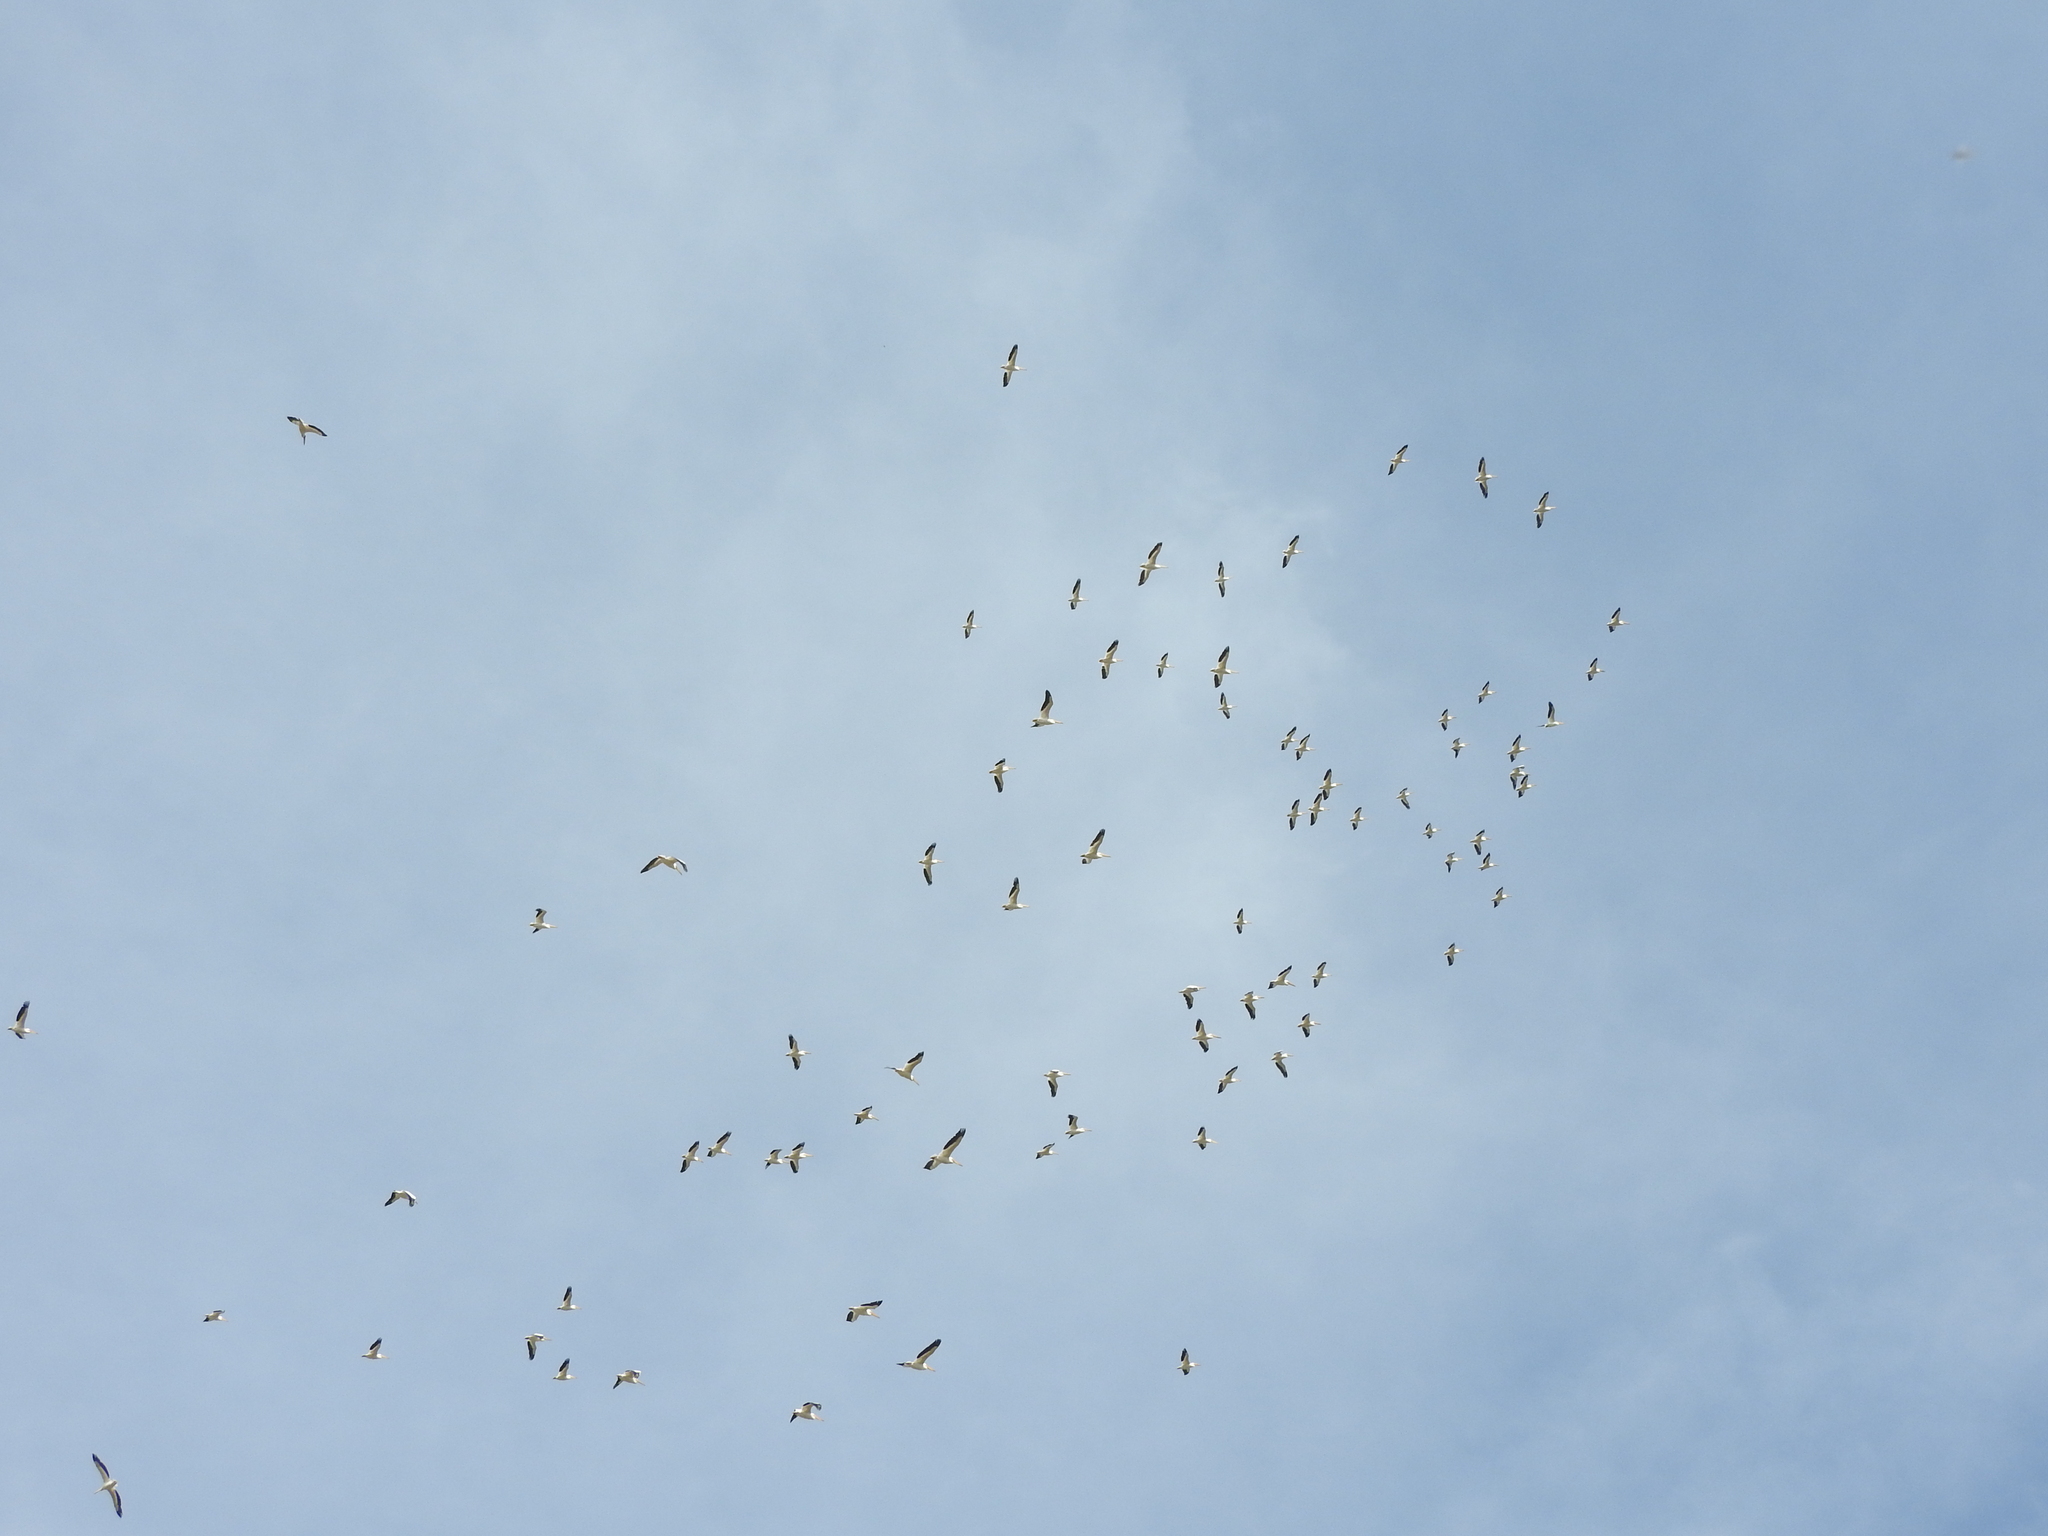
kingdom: Animalia
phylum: Chordata
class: Aves
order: Pelecaniformes
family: Pelecanidae
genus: Pelecanus
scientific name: Pelecanus erythrorhynchos
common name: American white pelican
